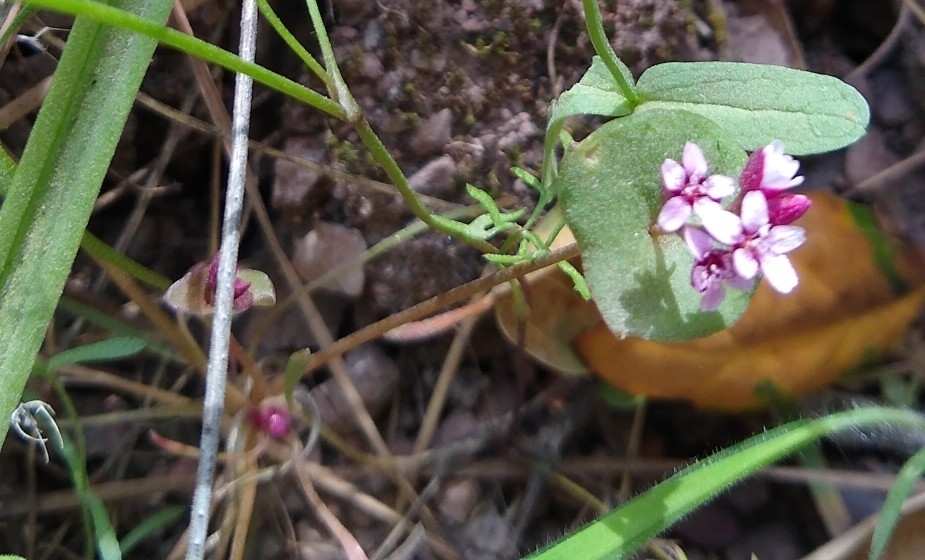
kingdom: Plantae
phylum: Tracheophyta
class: Magnoliopsida
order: Caryophyllales
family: Montiaceae
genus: Claytonia
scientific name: Claytonia parviflora
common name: Indian-lettuce
